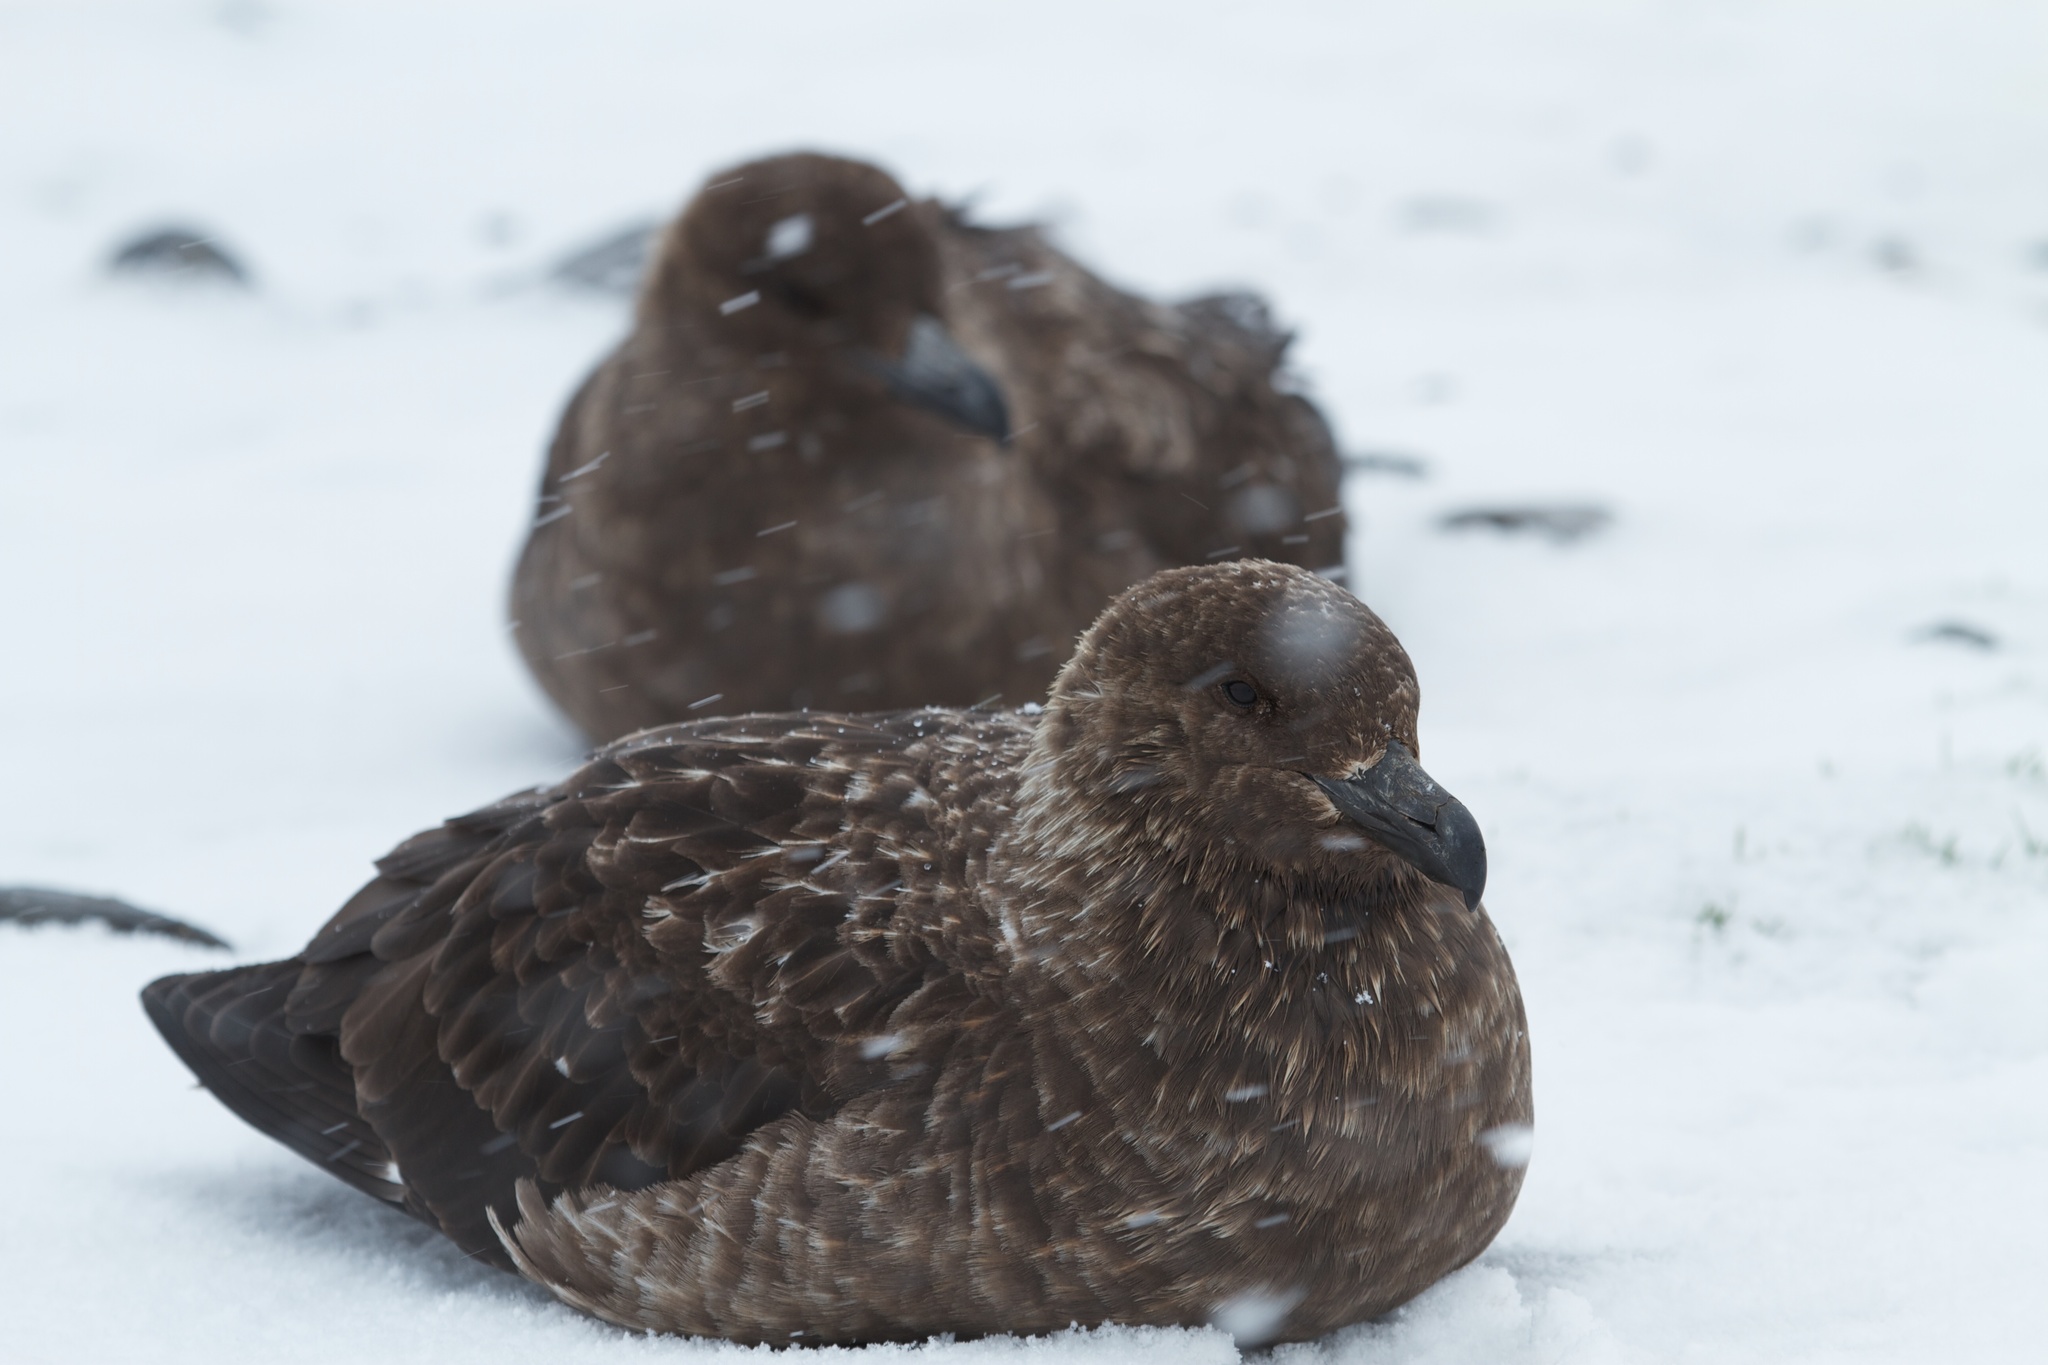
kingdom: Animalia
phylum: Chordata
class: Aves
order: Charadriiformes
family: Stercorariidae
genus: Stercorarius
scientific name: Stercorarius antarcticus
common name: Brown skua
